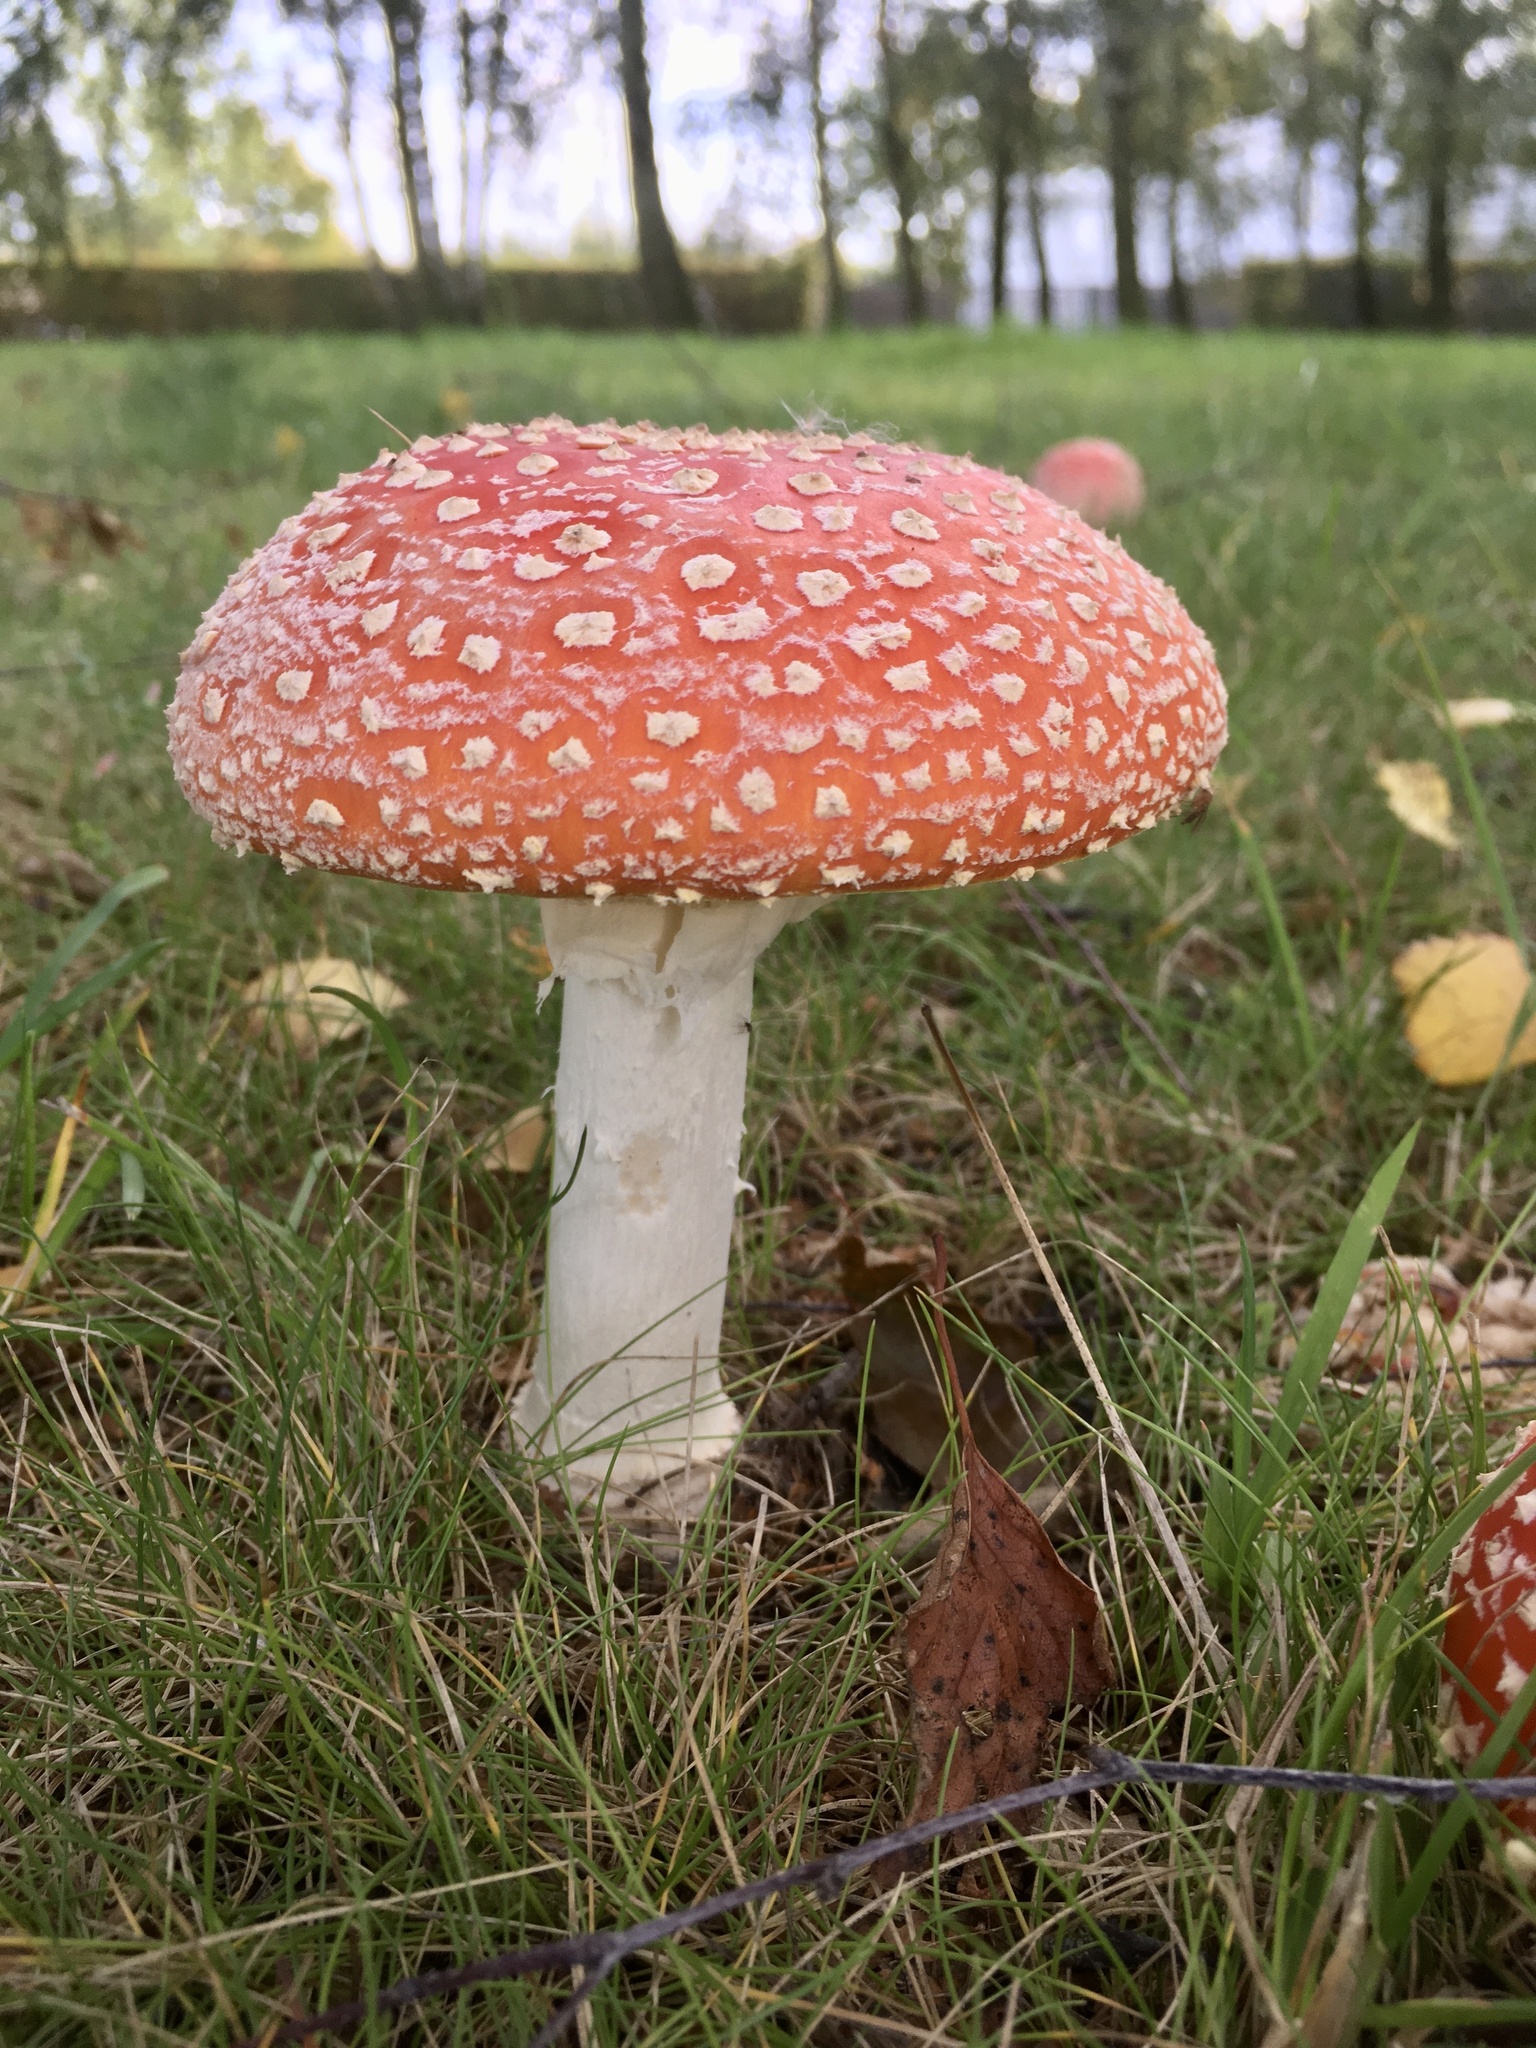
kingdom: Fungi
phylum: Basidiomycota
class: Agaricomycetes
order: Agaricales
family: Amanitaceae
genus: Amanita
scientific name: Amanita muscaria
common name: Fly agaric
